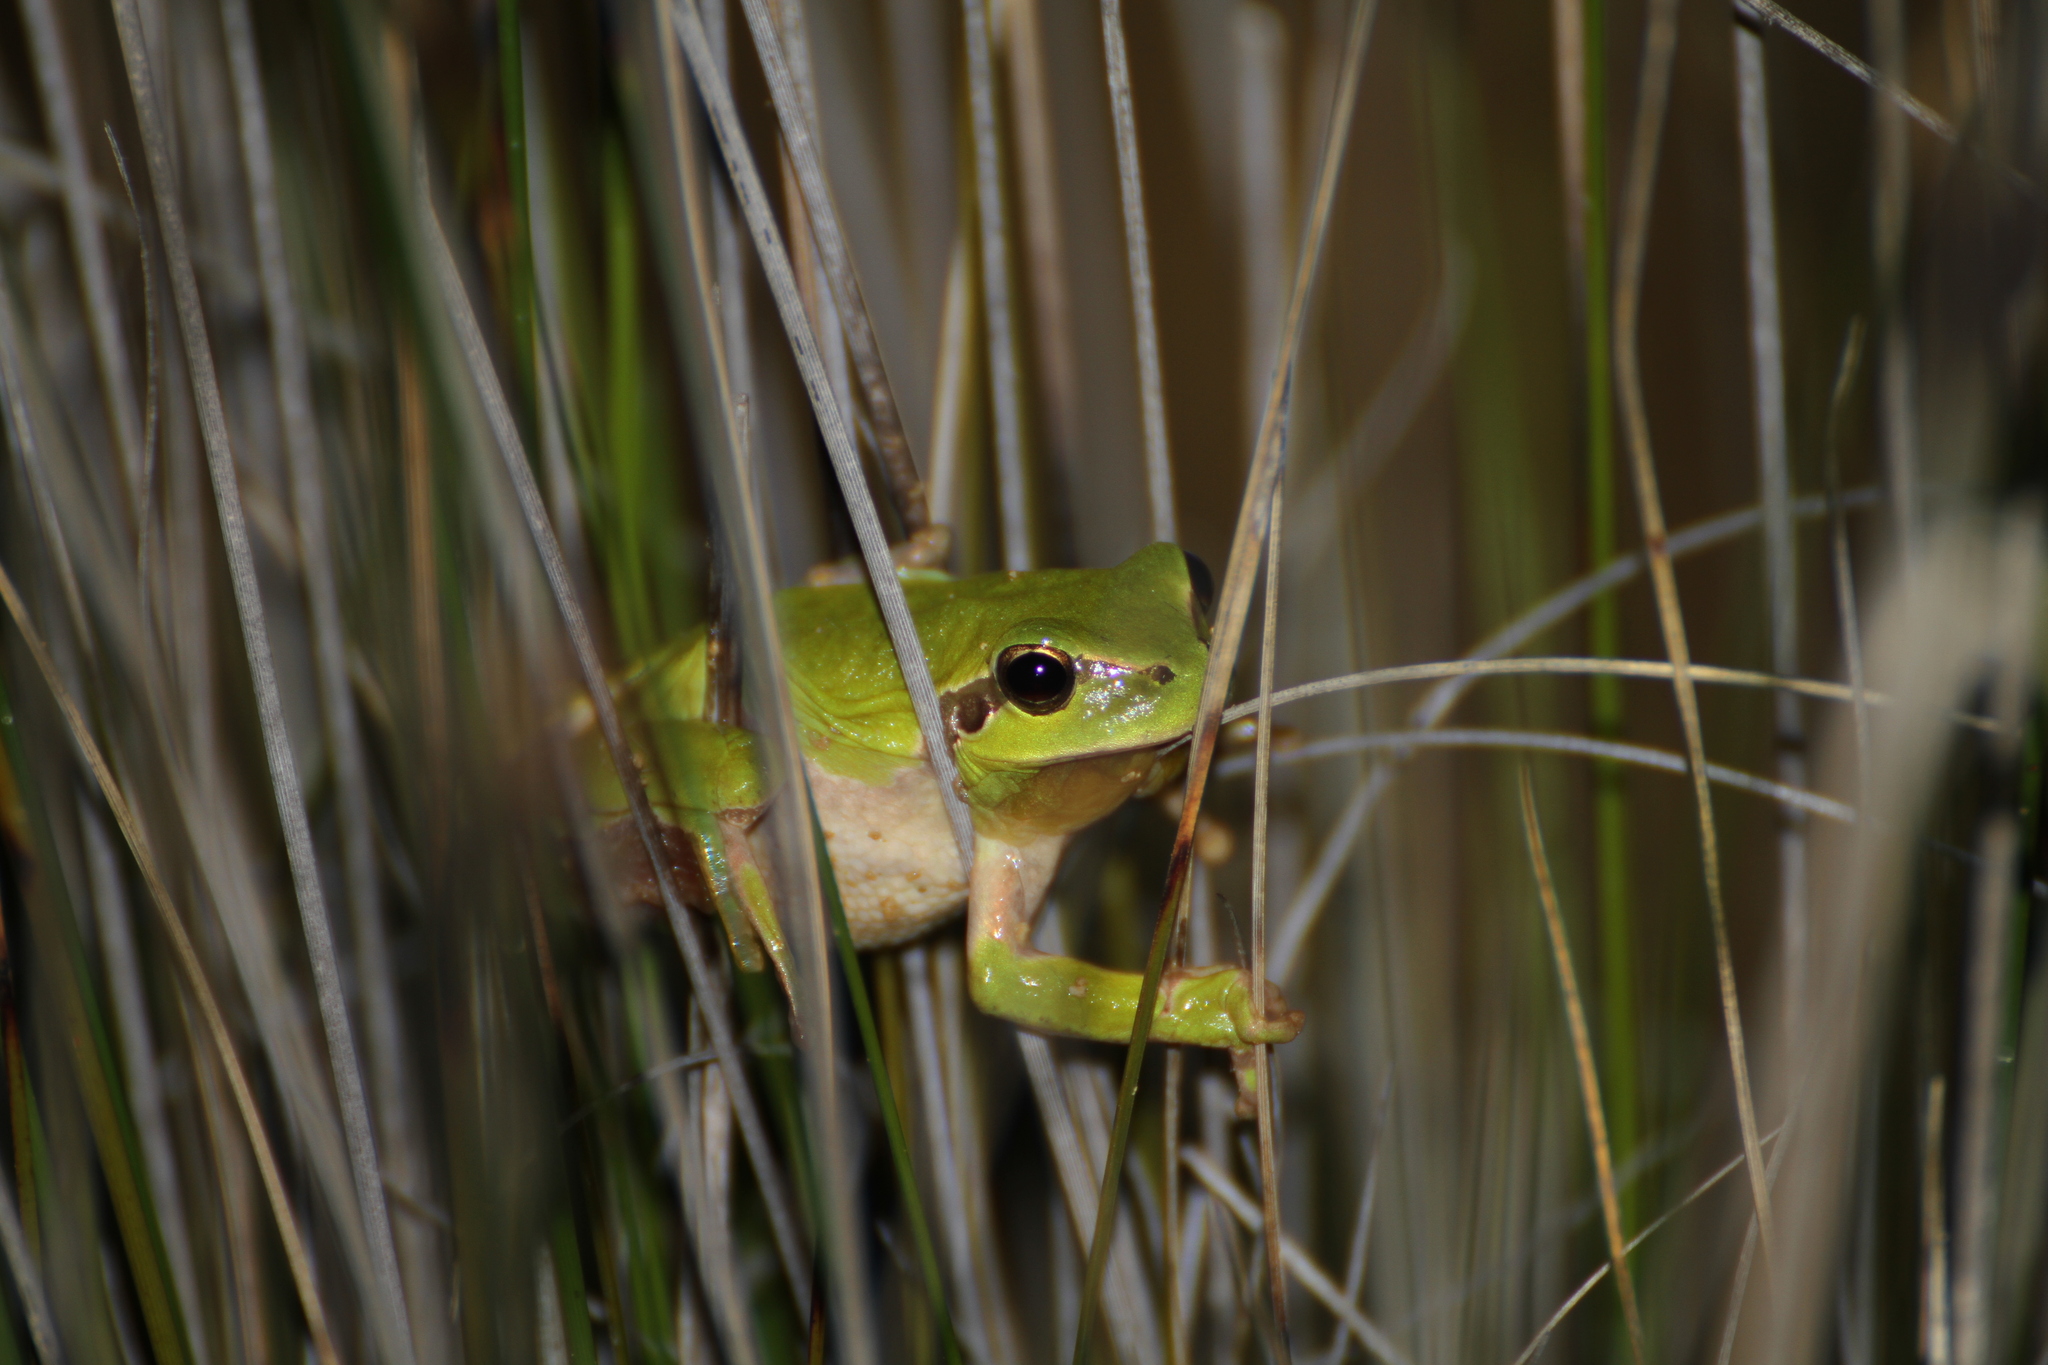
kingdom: Animalia
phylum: Chordata
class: Amphibia
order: Anura
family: Hylidae
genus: Hyla
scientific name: Hyla meridionalis
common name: Stripeless tree frog
